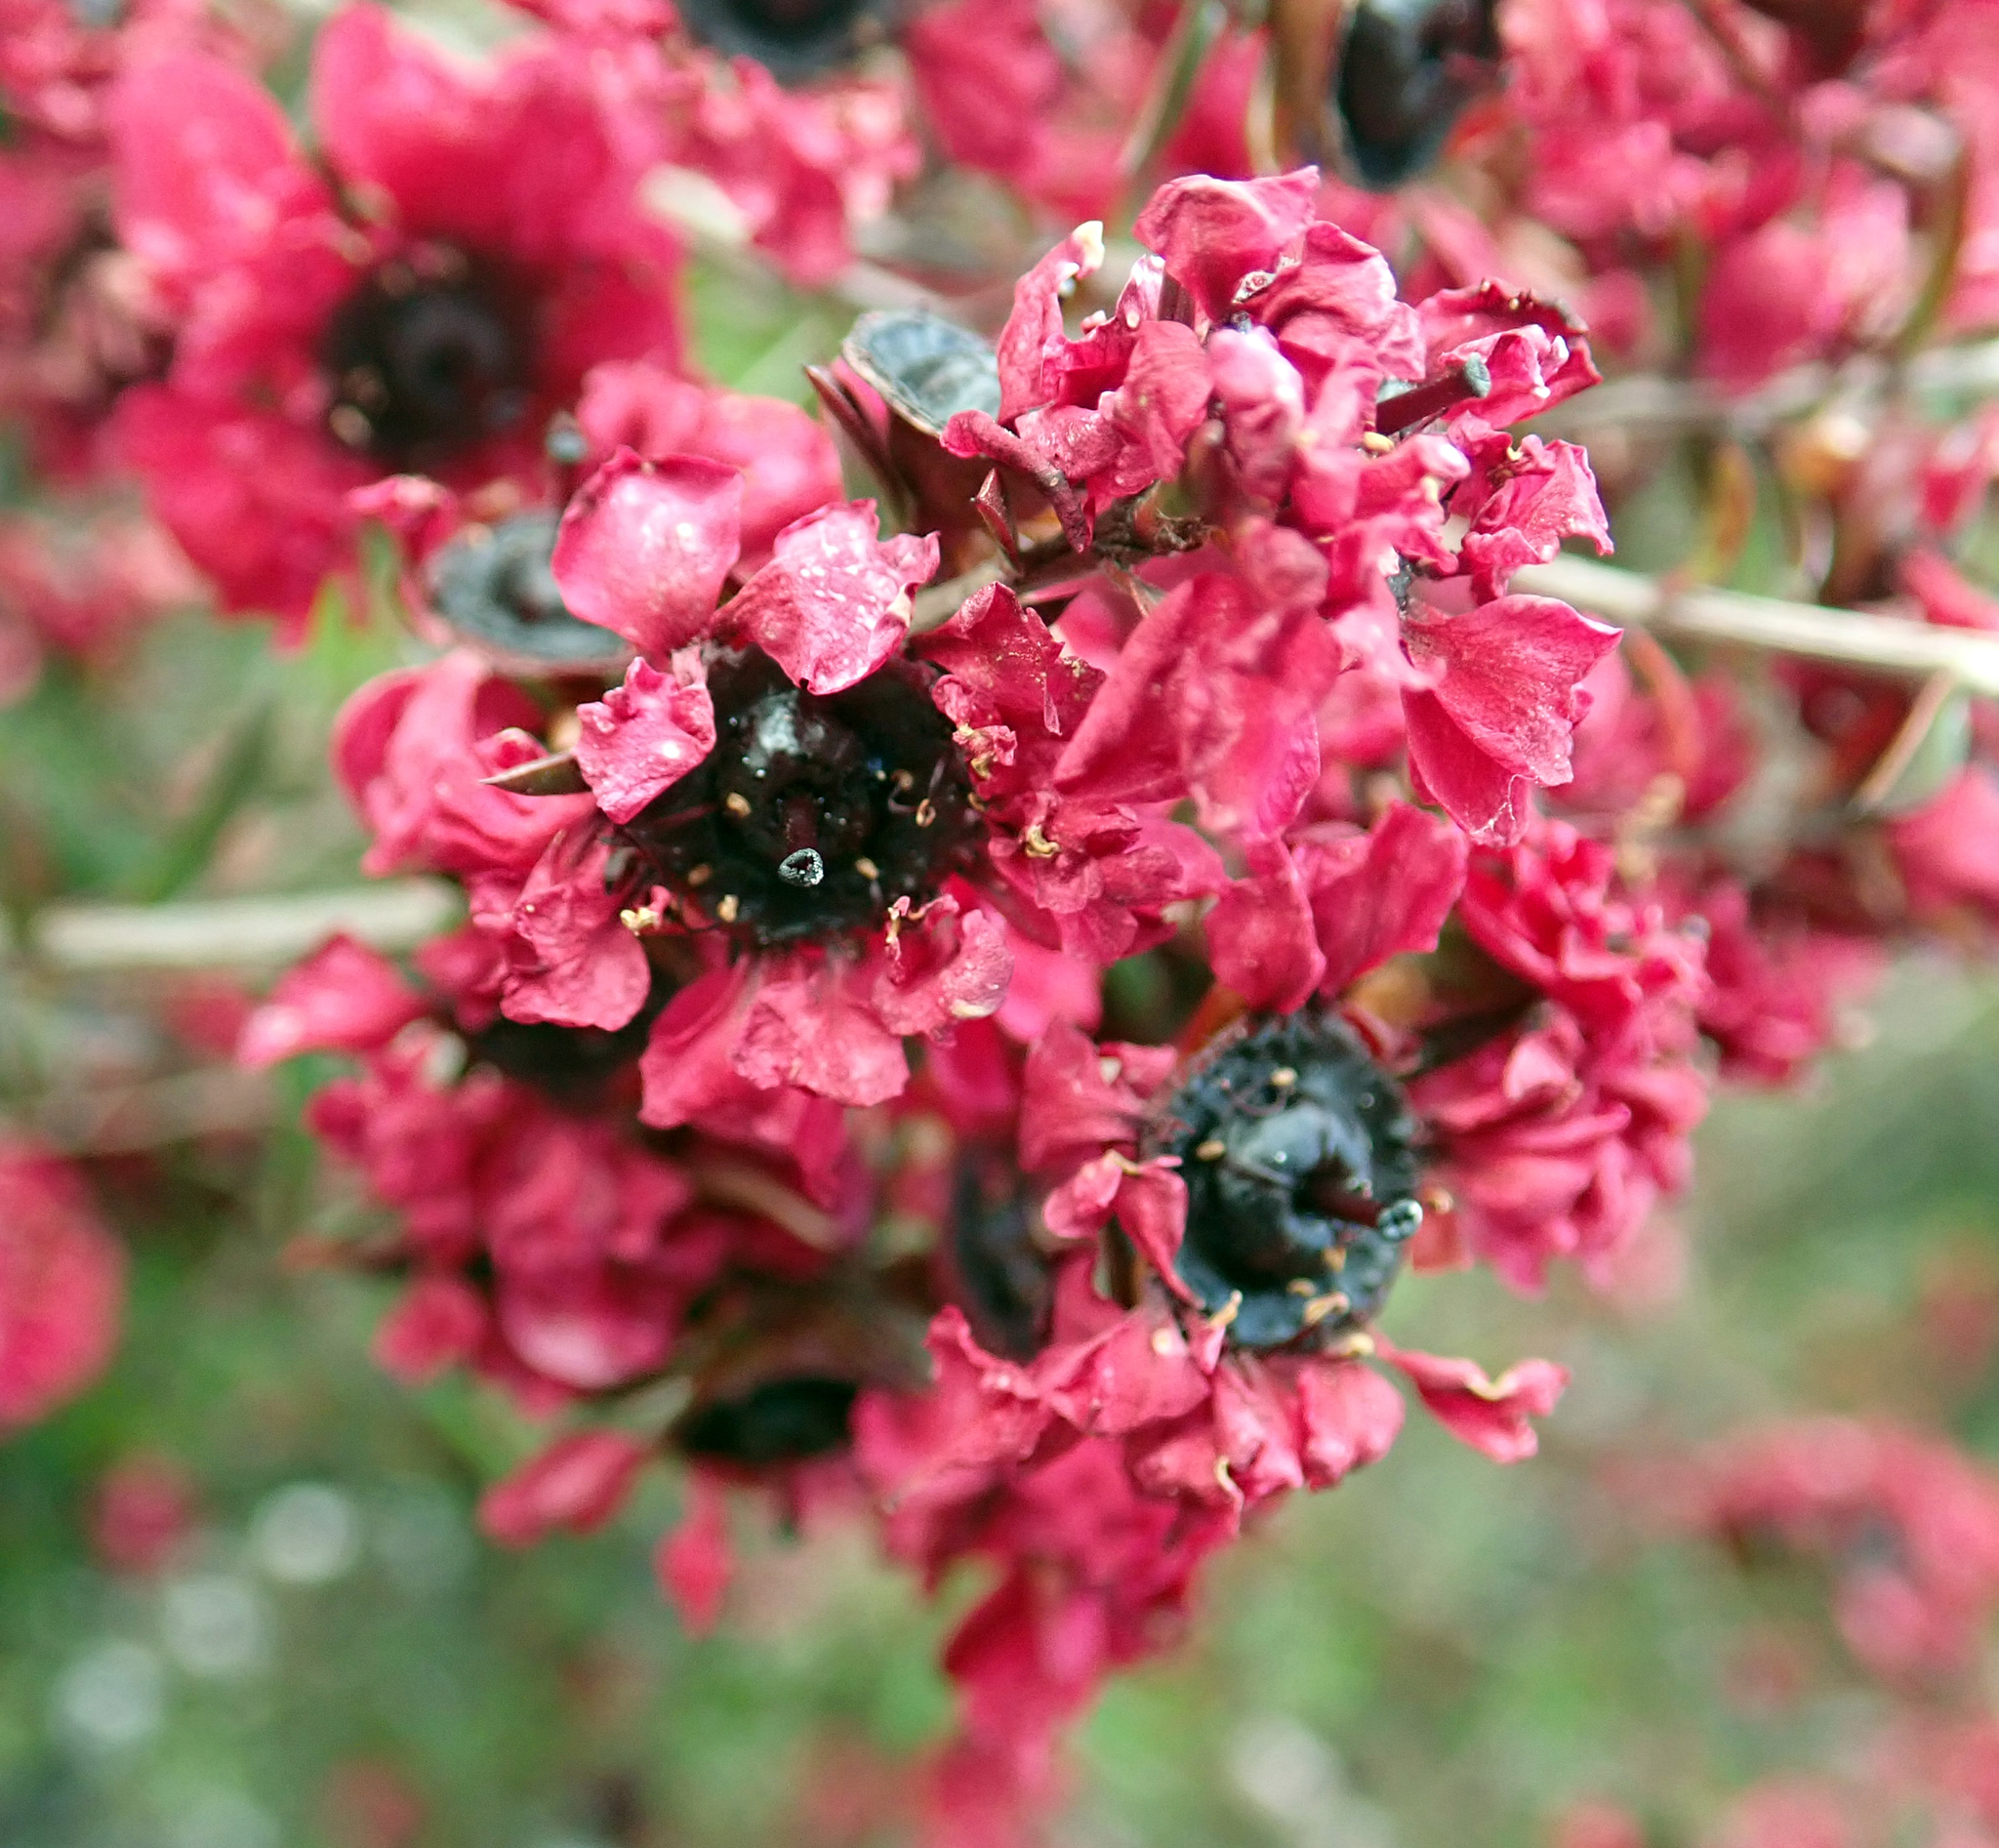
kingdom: Plantae
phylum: Tracheophyta
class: Magnoliopsida
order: Myrtales
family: Myrtaceae
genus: Leptospermum
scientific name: Leptospermum scoparium
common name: Broom tea-tree
